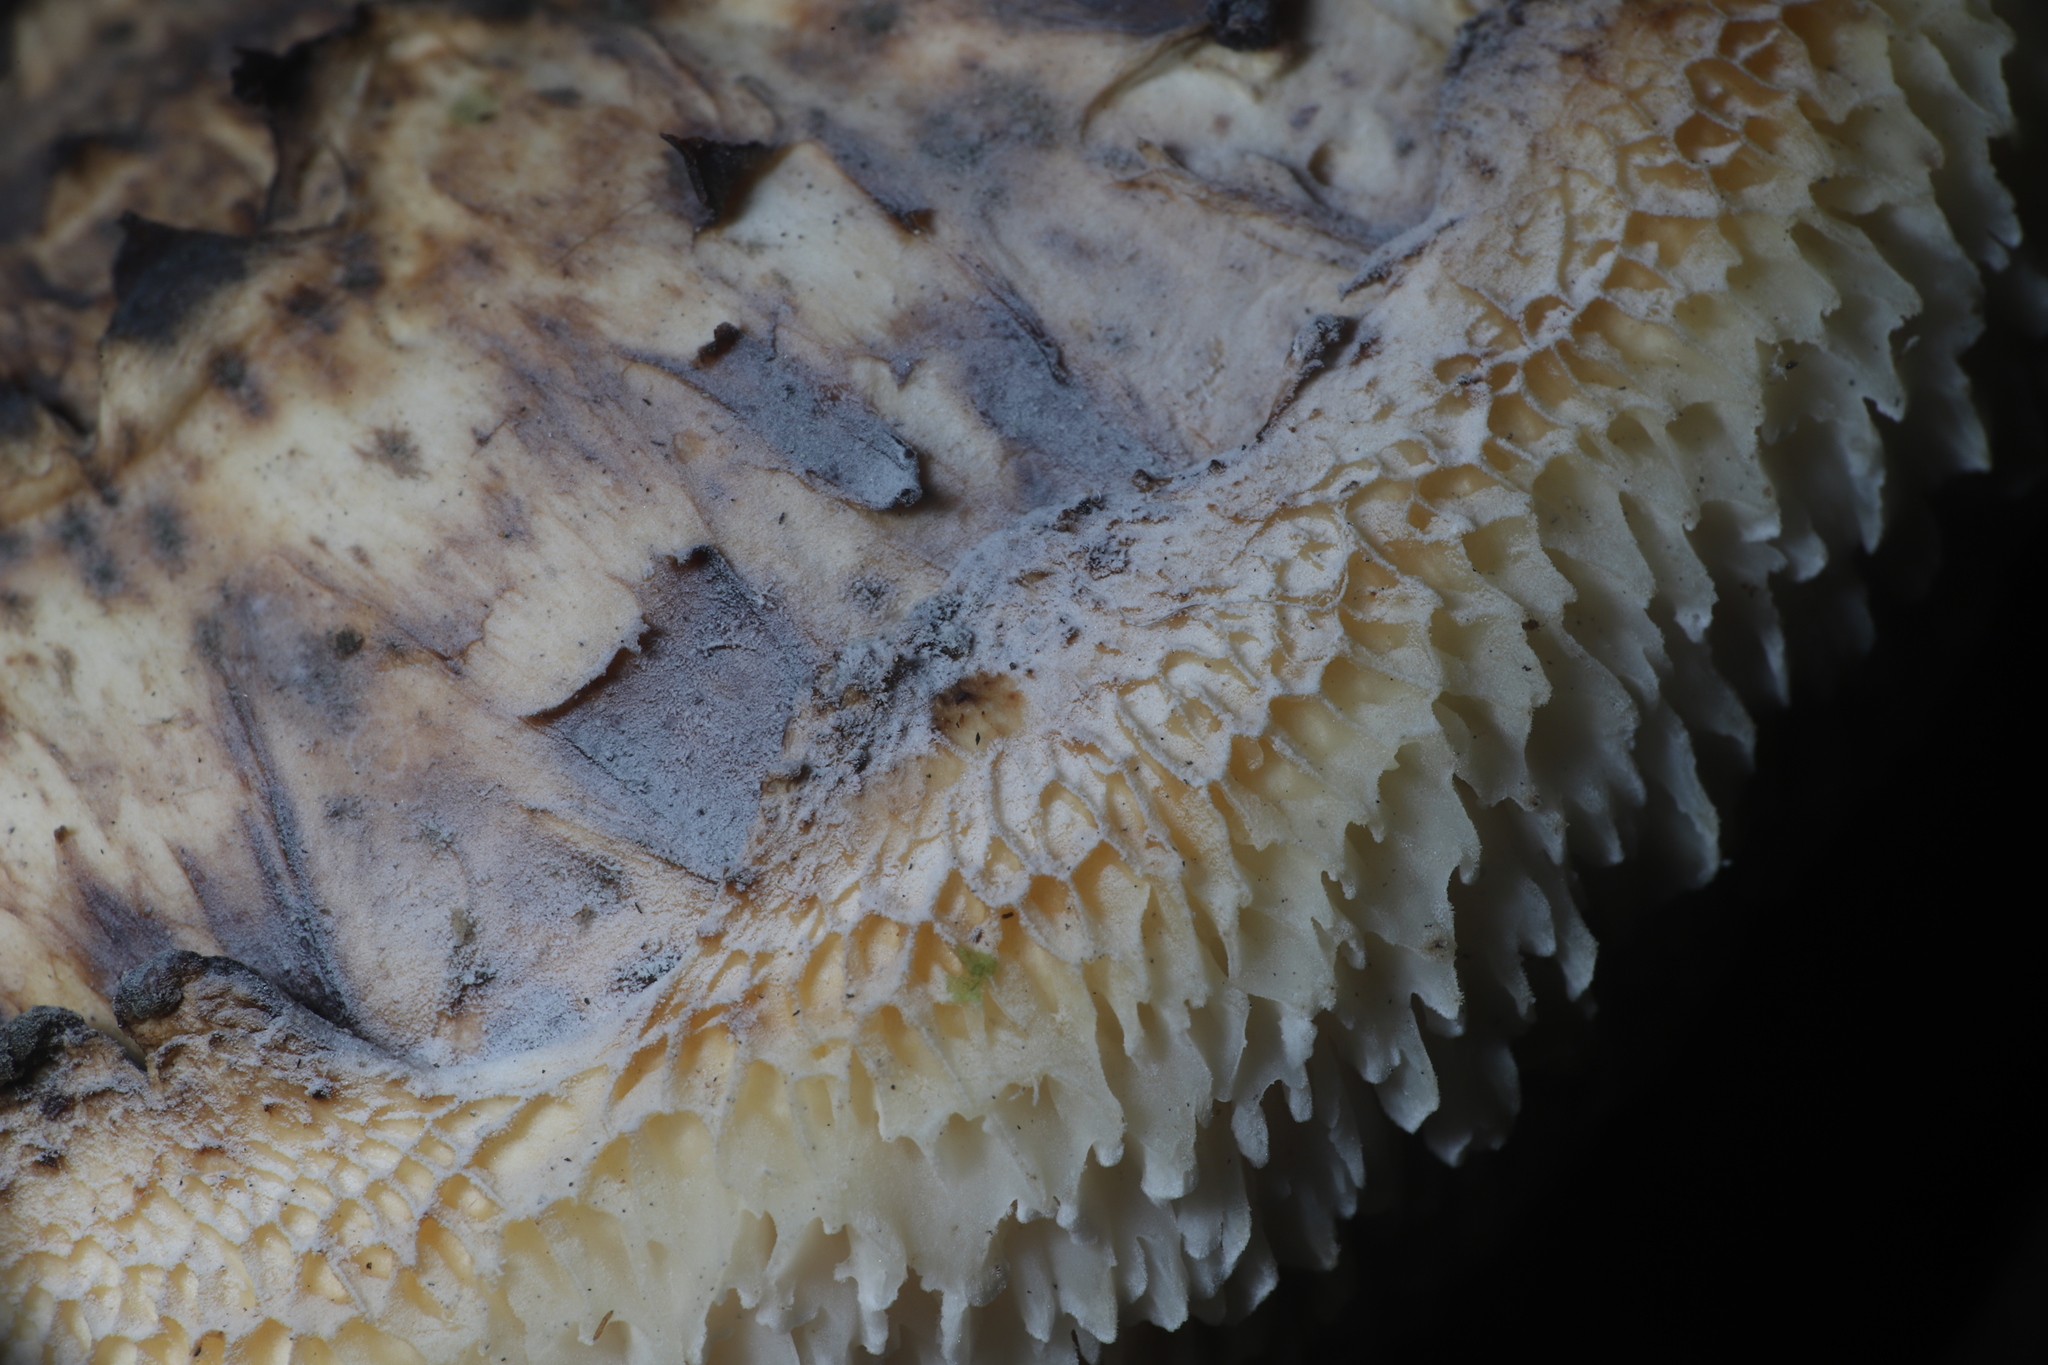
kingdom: Fungi
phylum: Basidiomycota
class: Agaricomycetes
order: Polyporales
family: Polyporaceae
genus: Cerioporus
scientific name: Cerioporus squamosus
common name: Dryad's saddle
